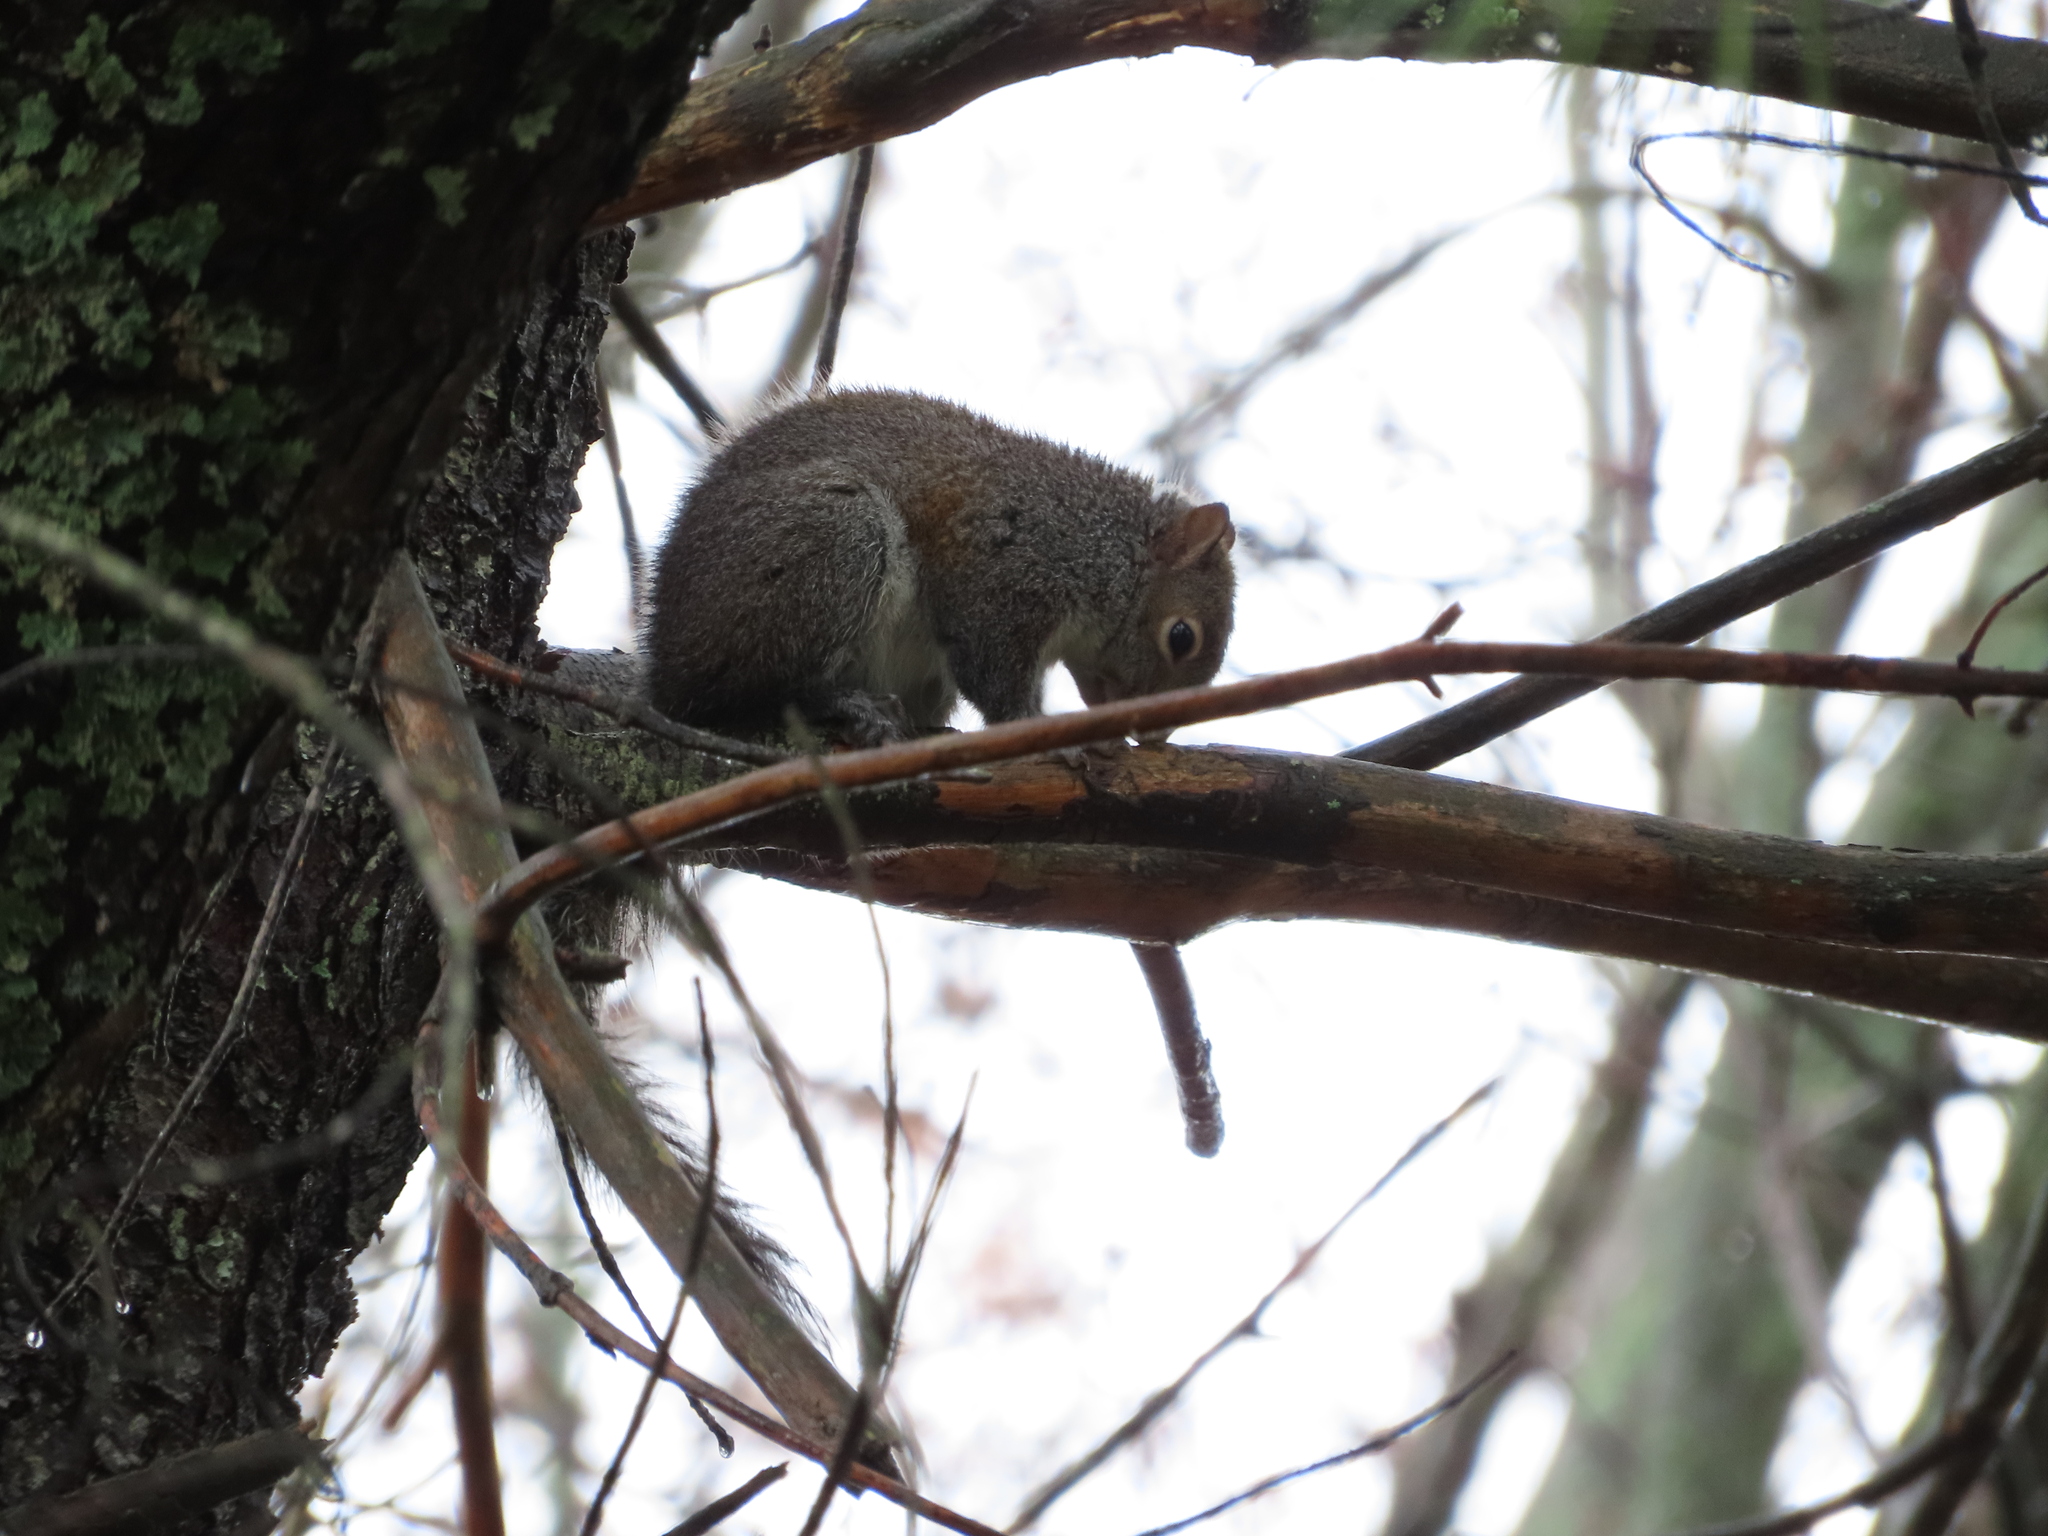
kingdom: Animalia
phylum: Chordata
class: Mammalia
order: Rodentia
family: Sciuridae
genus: Sciurus
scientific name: Sciurus carolinensis
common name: Eastern gray squirrel
